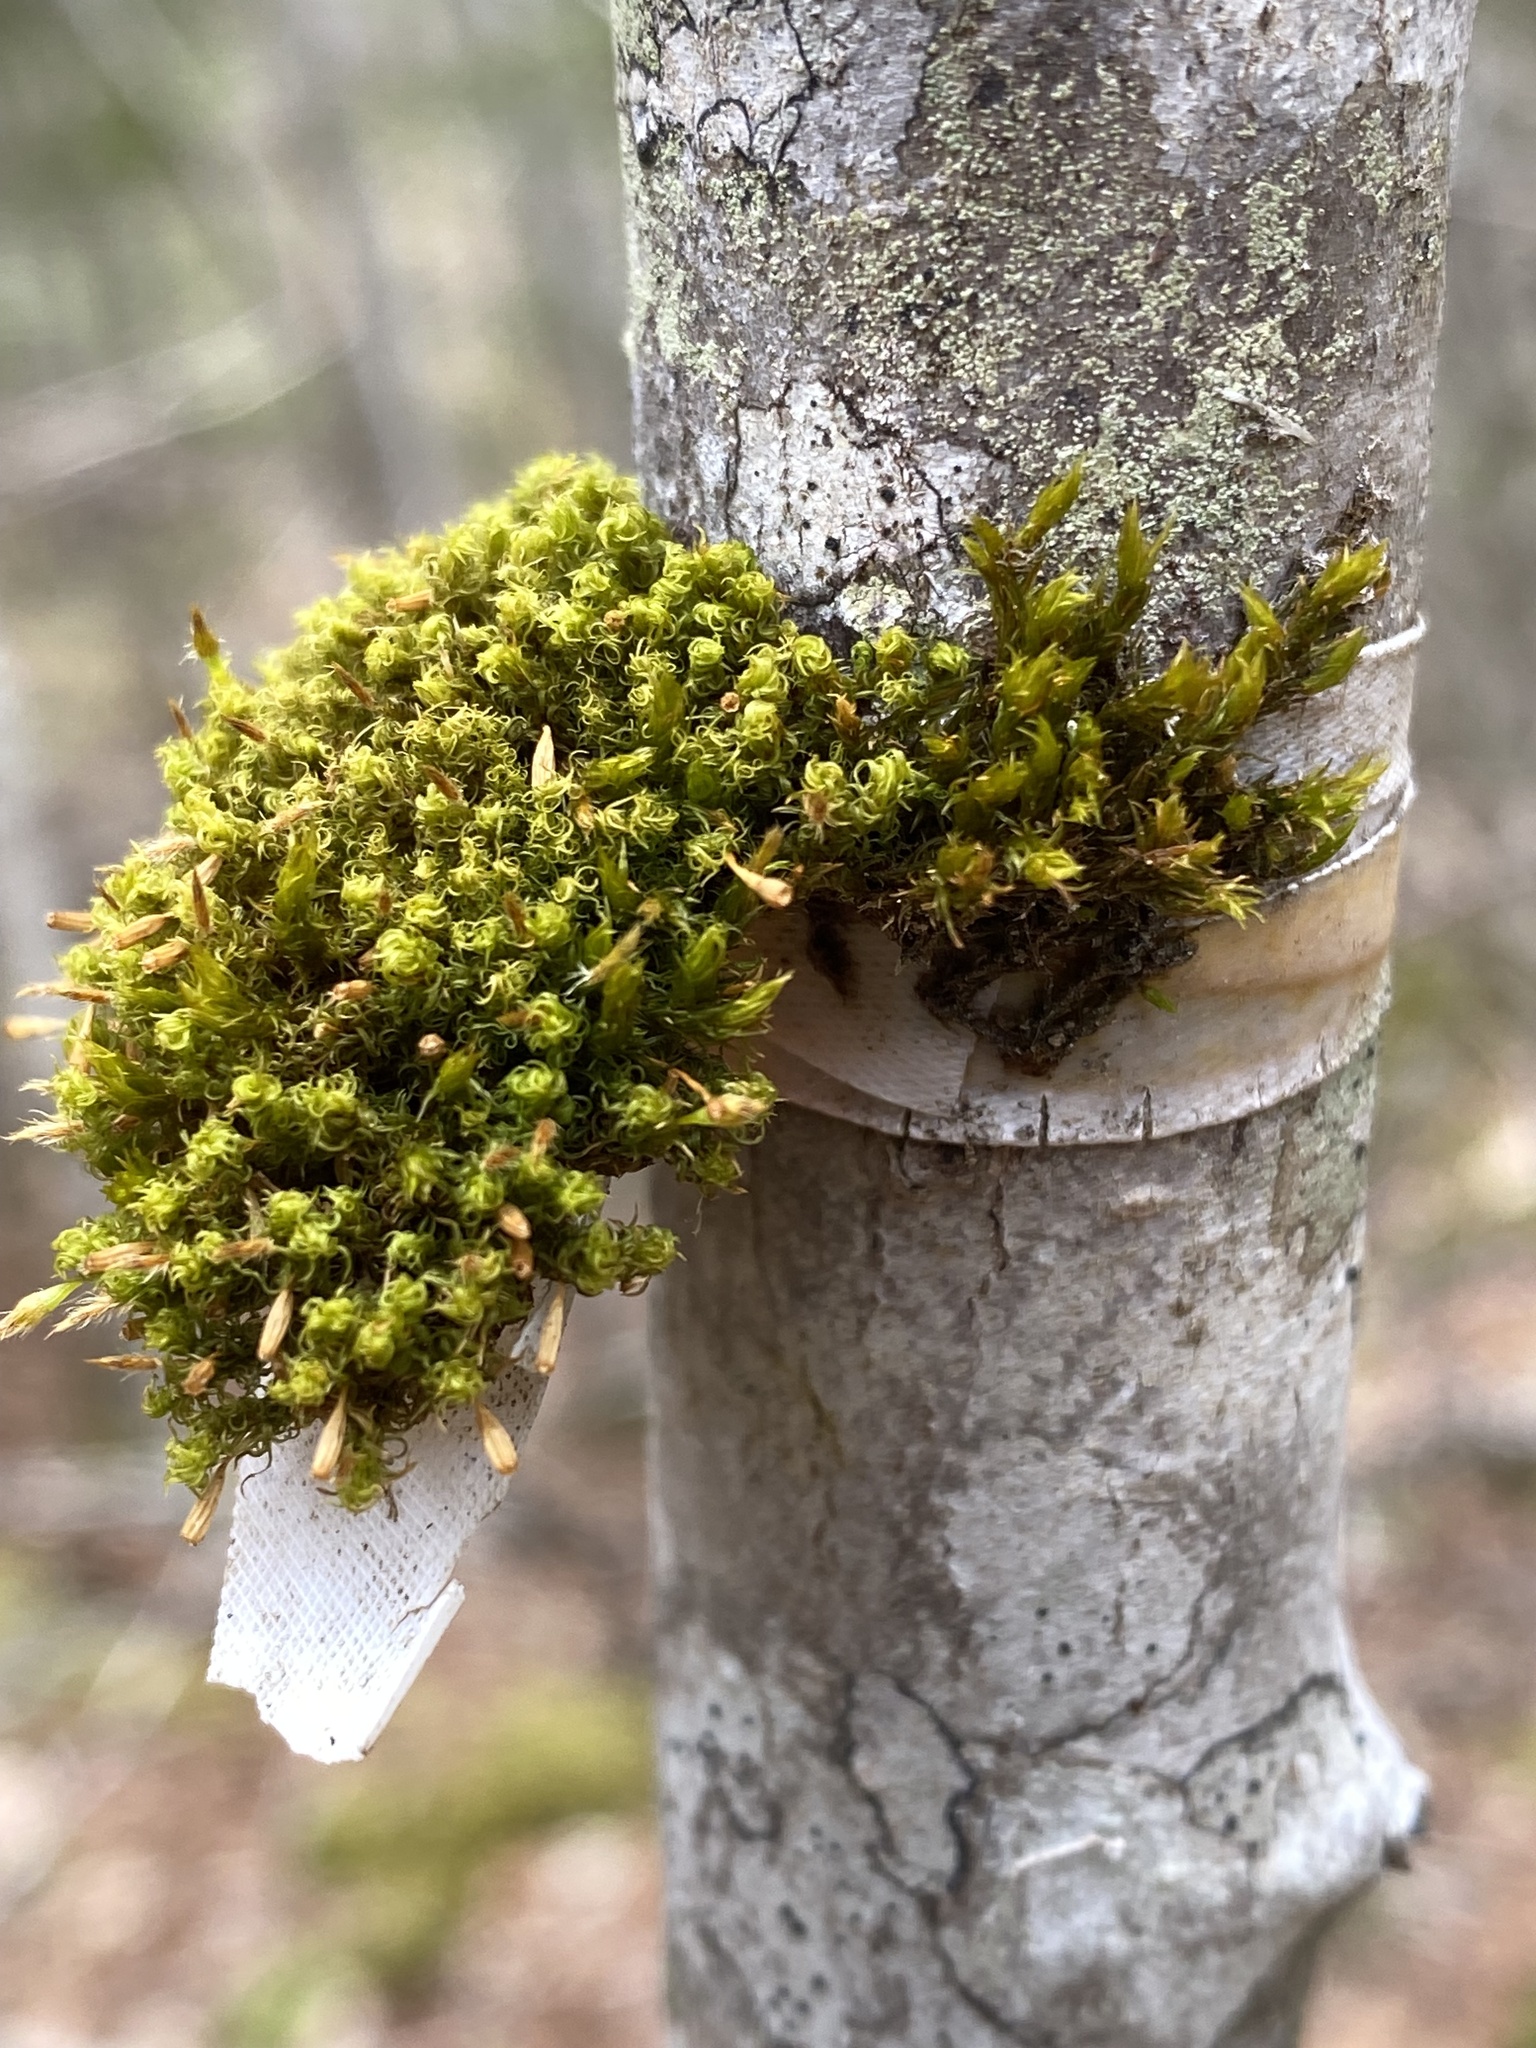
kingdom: Plantae
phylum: Bryophyta
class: Bryopsida
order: Orthotrichales
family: Orthotrichaceae
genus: Ulota
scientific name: Ulota crispa
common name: Crisped pincushion moss
